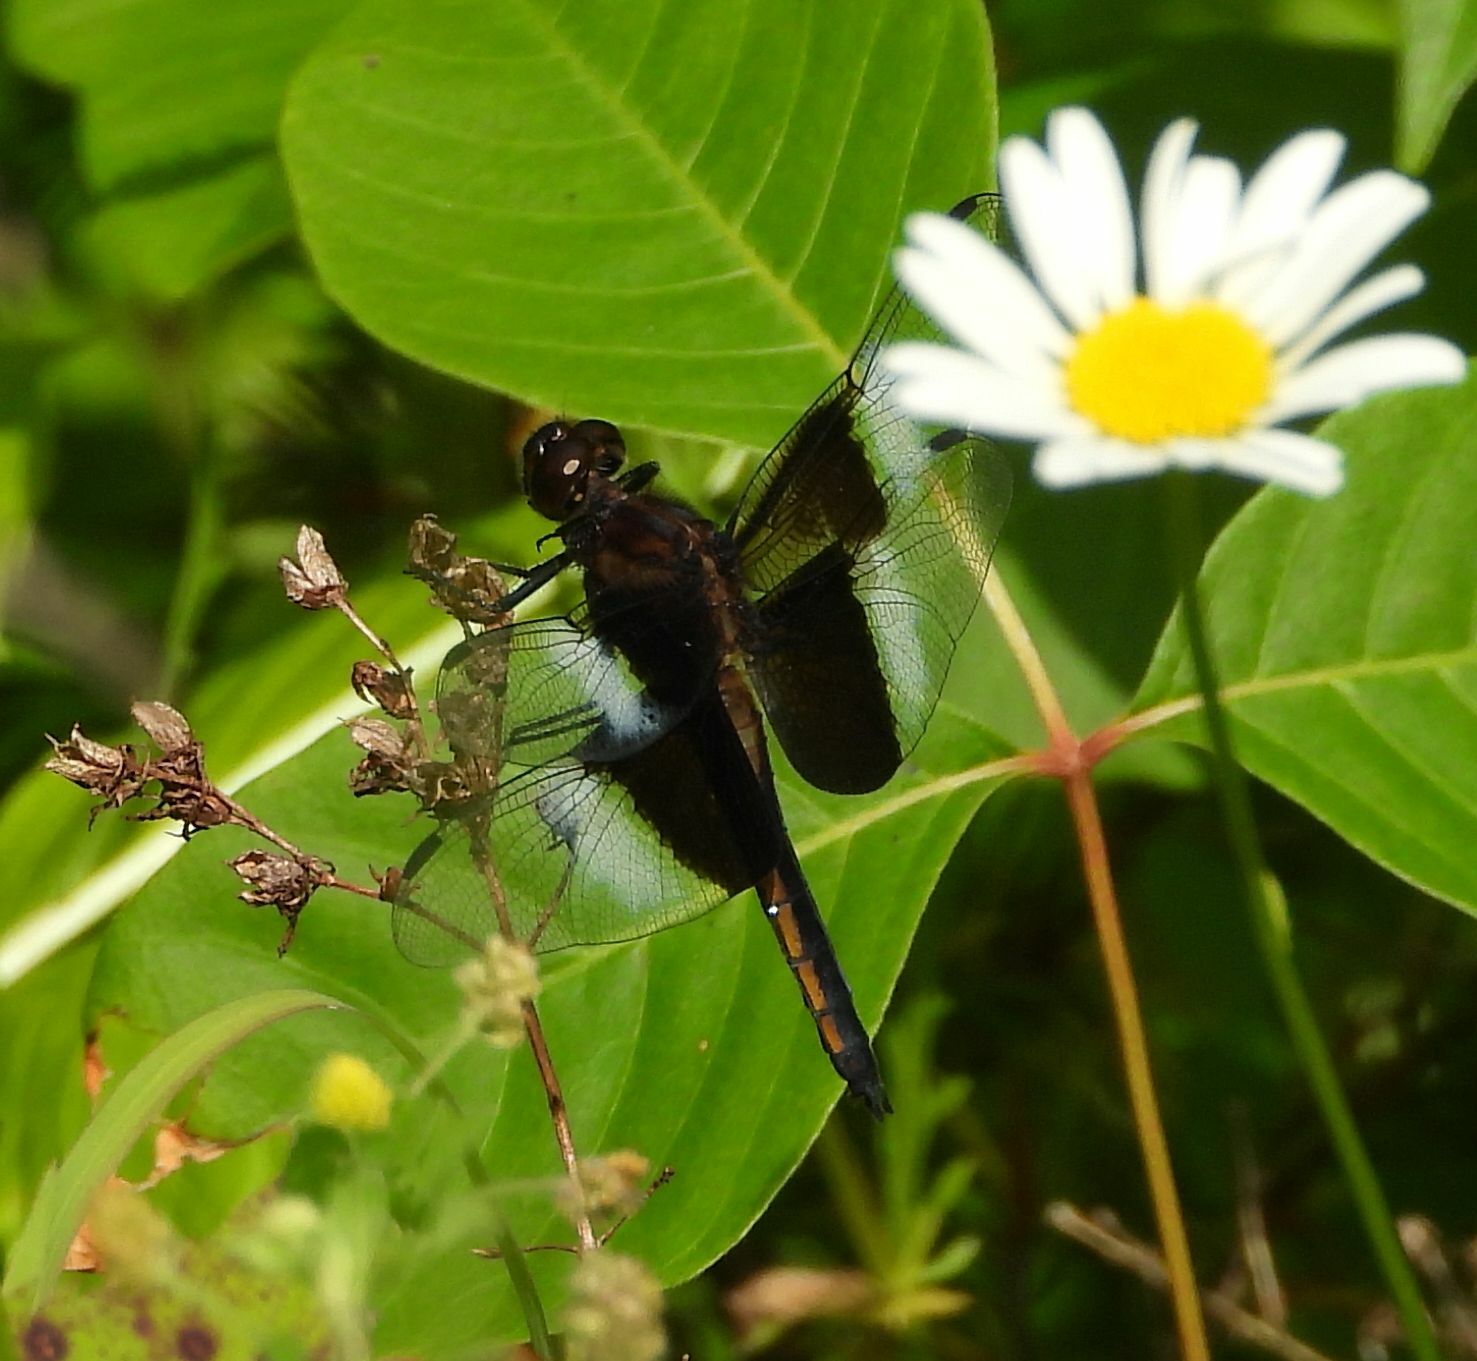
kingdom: Animalia
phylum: Arthropoda
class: Insecta
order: Odonata
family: Libellulidae
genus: Libellula
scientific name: Libellula luctuosa
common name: Widow skimmer
